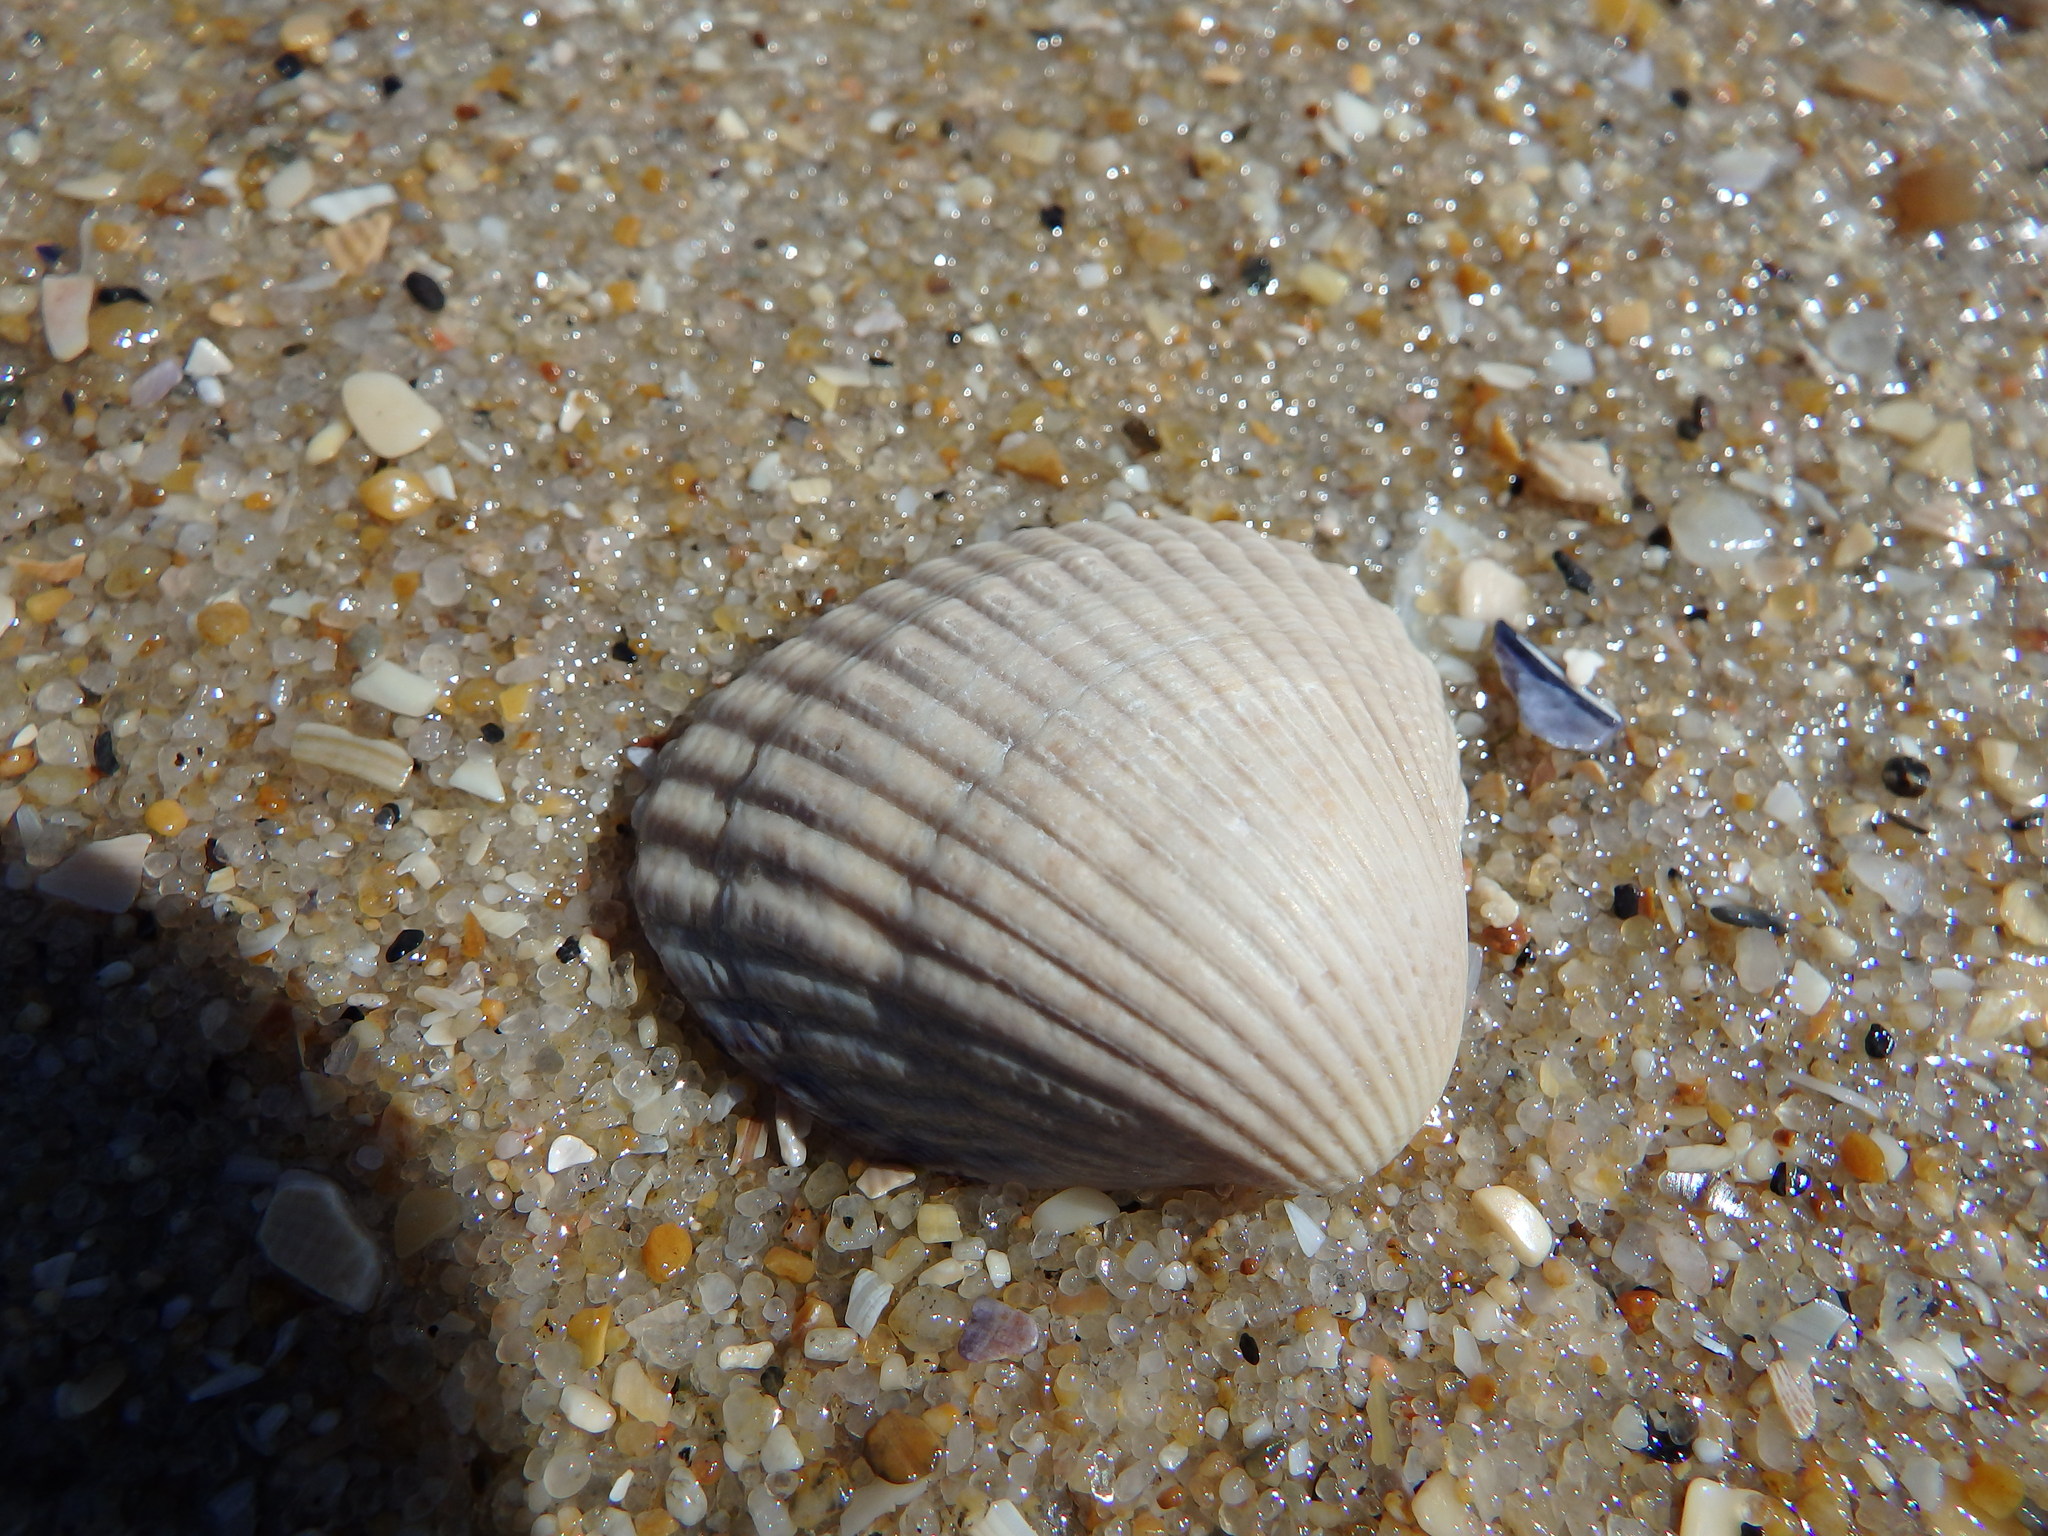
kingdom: Animalia
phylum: Mollusca
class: Bivalvia
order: Cardiida
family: Cardiidae
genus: Cerastoderma
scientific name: Cerastoderma edule
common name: Common cockle
